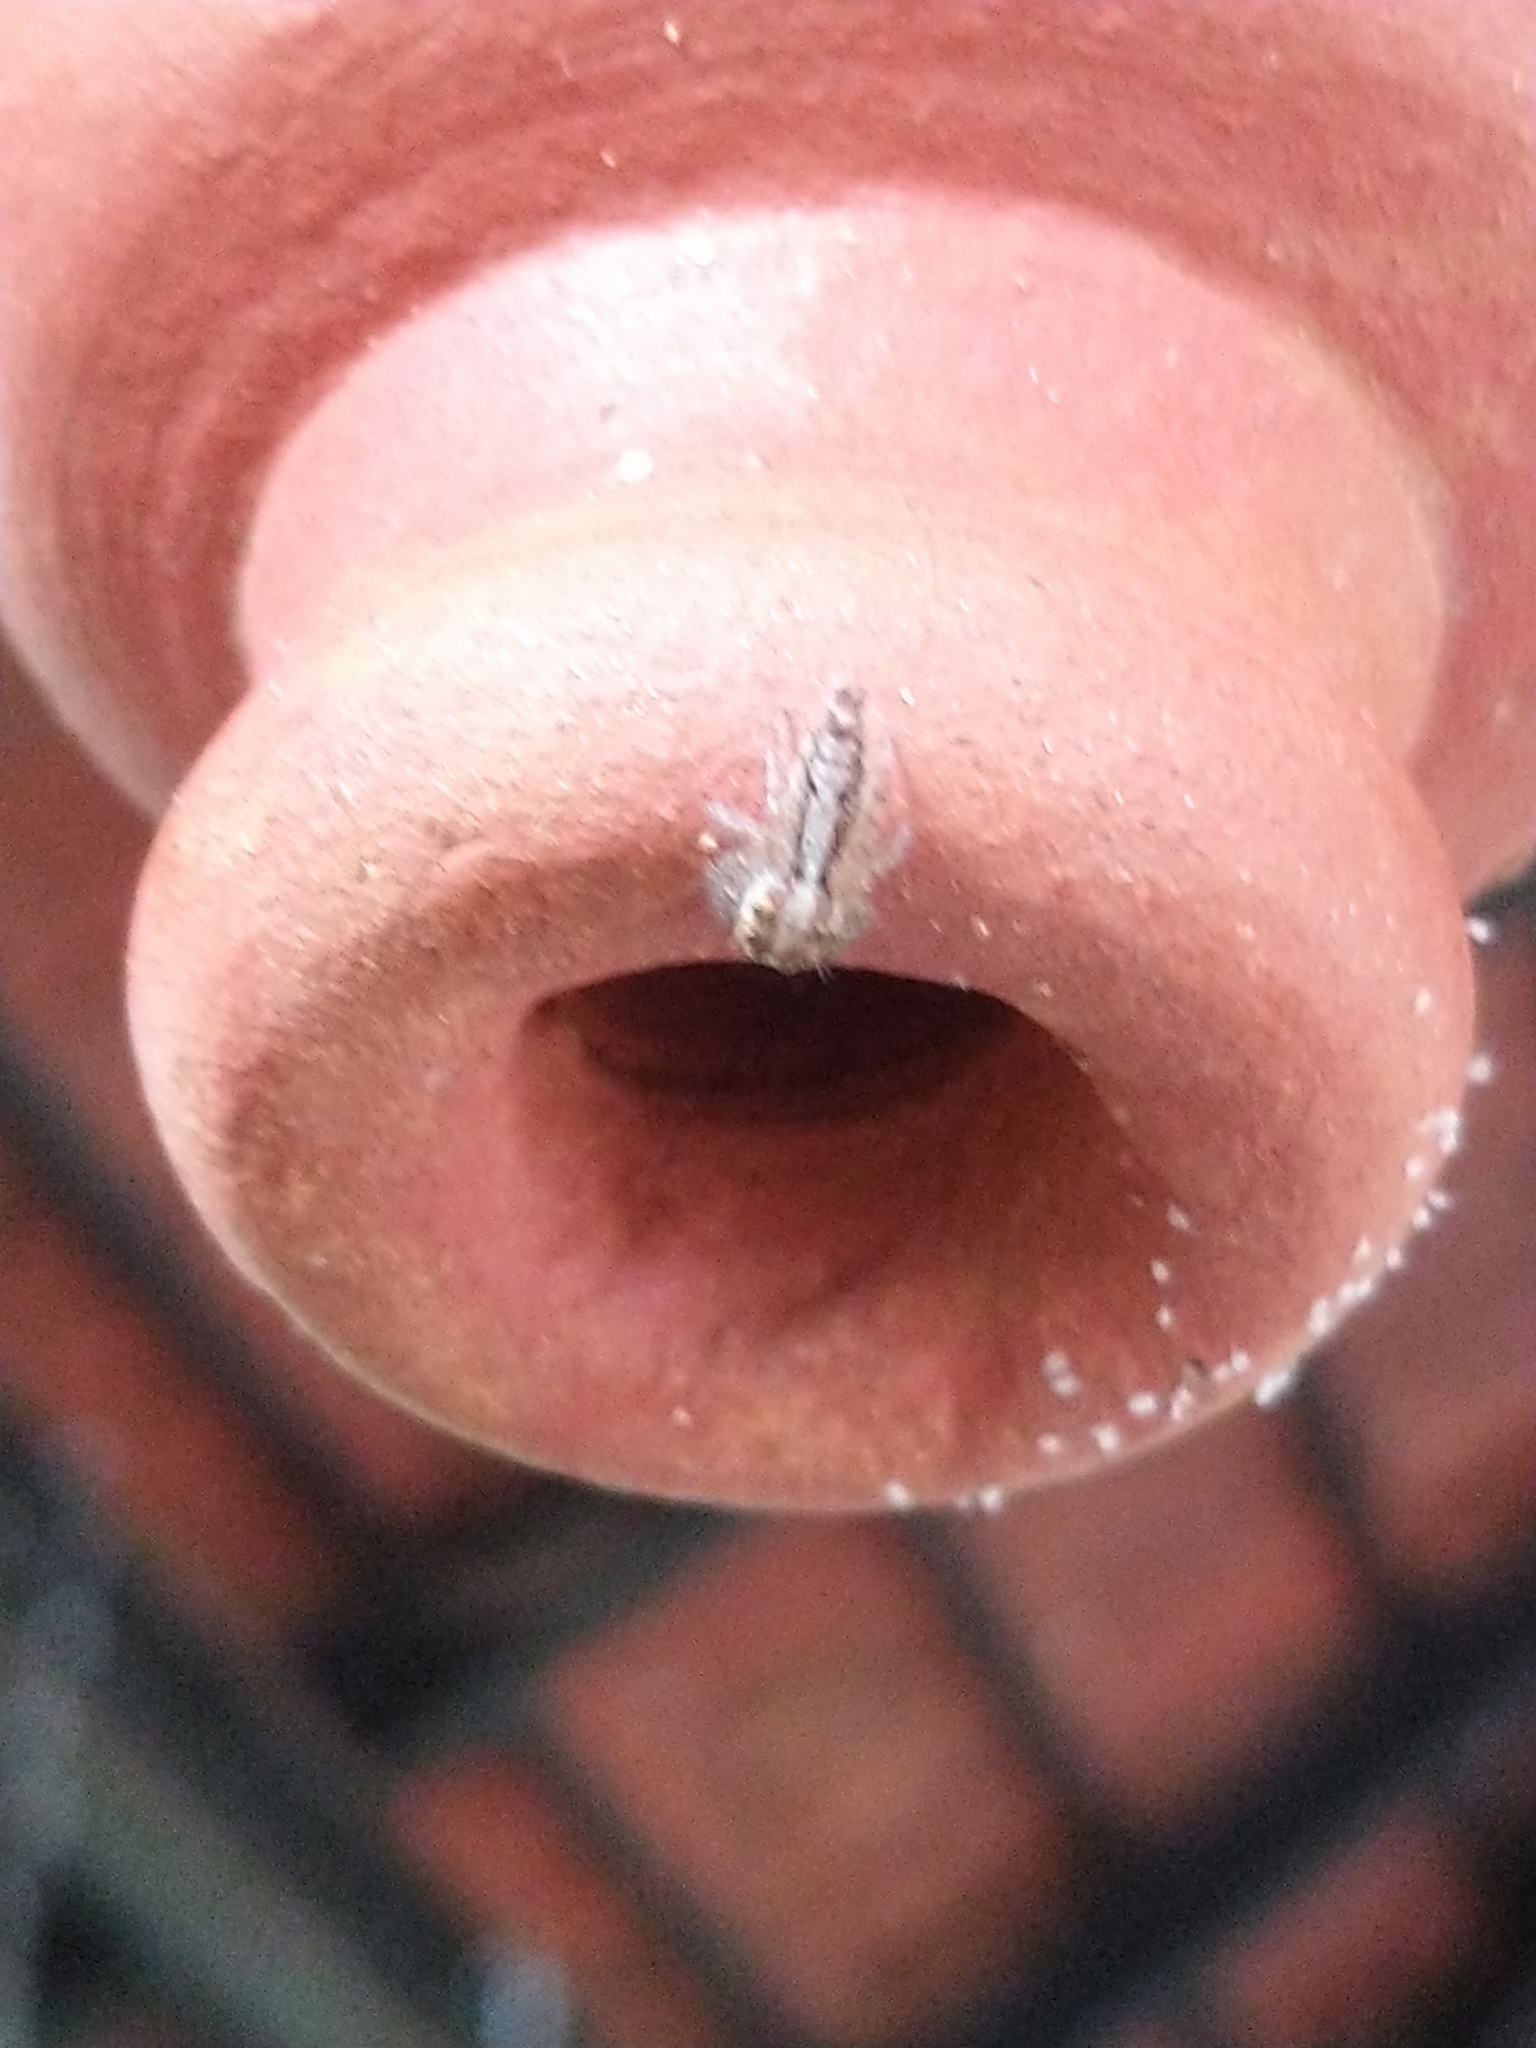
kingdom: Animalia
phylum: Arthropoda
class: Arachnida
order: Araneae
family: Salticidae
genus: Hyllus
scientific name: Hyllus semicupreus
